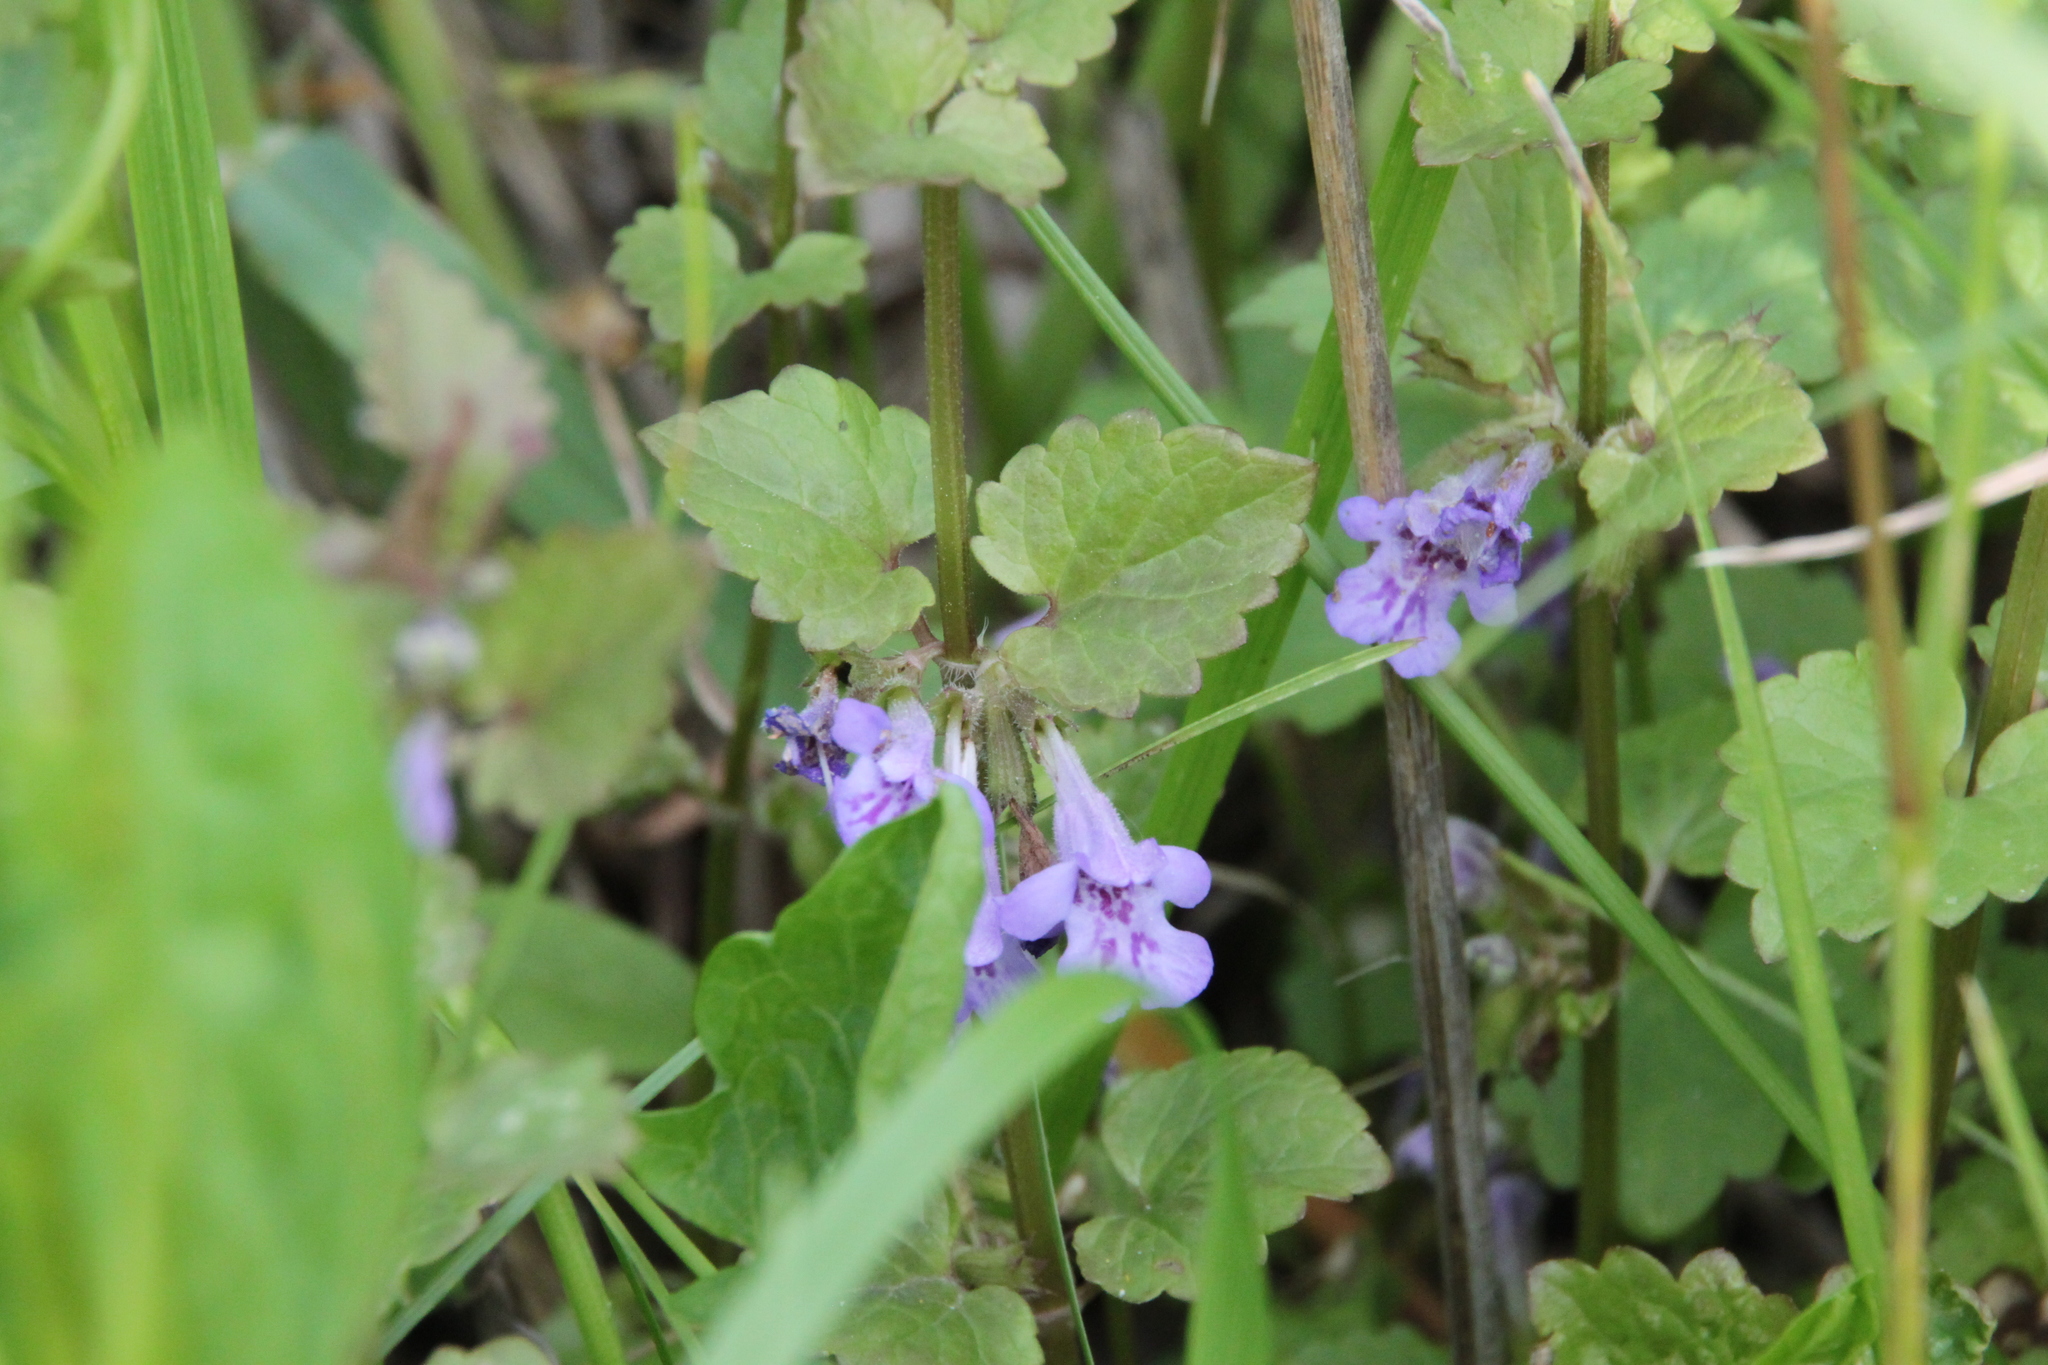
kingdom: Plantae
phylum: Tracheophyta
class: Magnoliopsida
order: Lamiales
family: Lamiaceae
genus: Glechoma
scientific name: Glechoma hederacea
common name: Ground ivy
